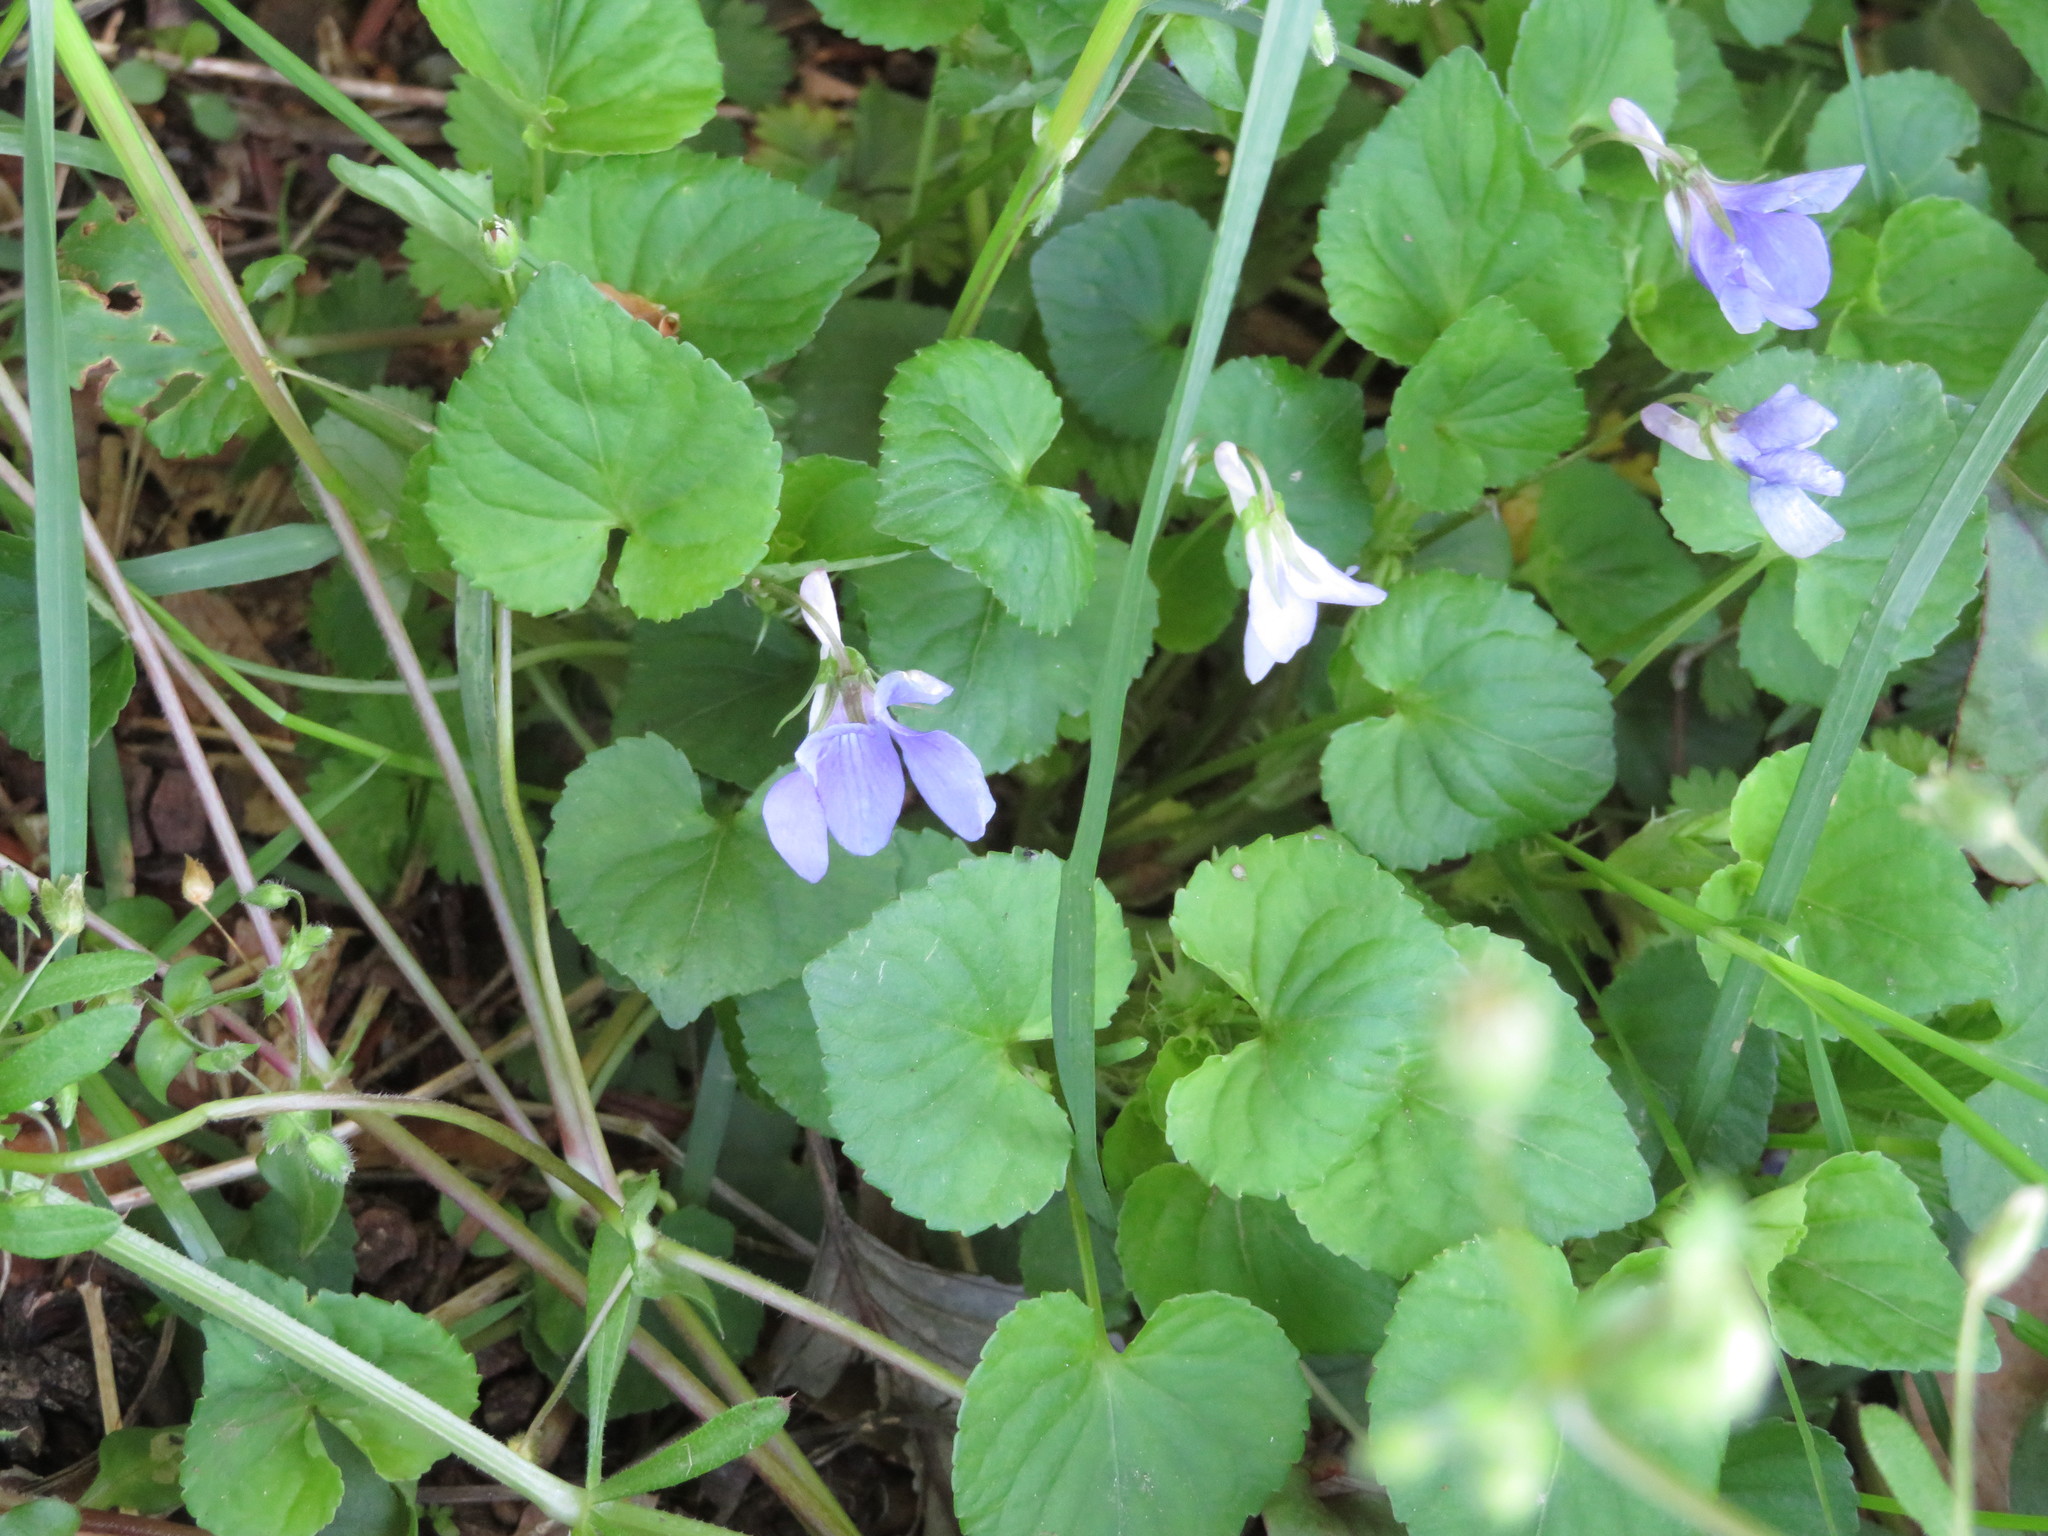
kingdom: Plantae
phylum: Tracheophyta
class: Magnoliopsida
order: Malpighiales
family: Violaceae
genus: Viola
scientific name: Viola grypoceras
